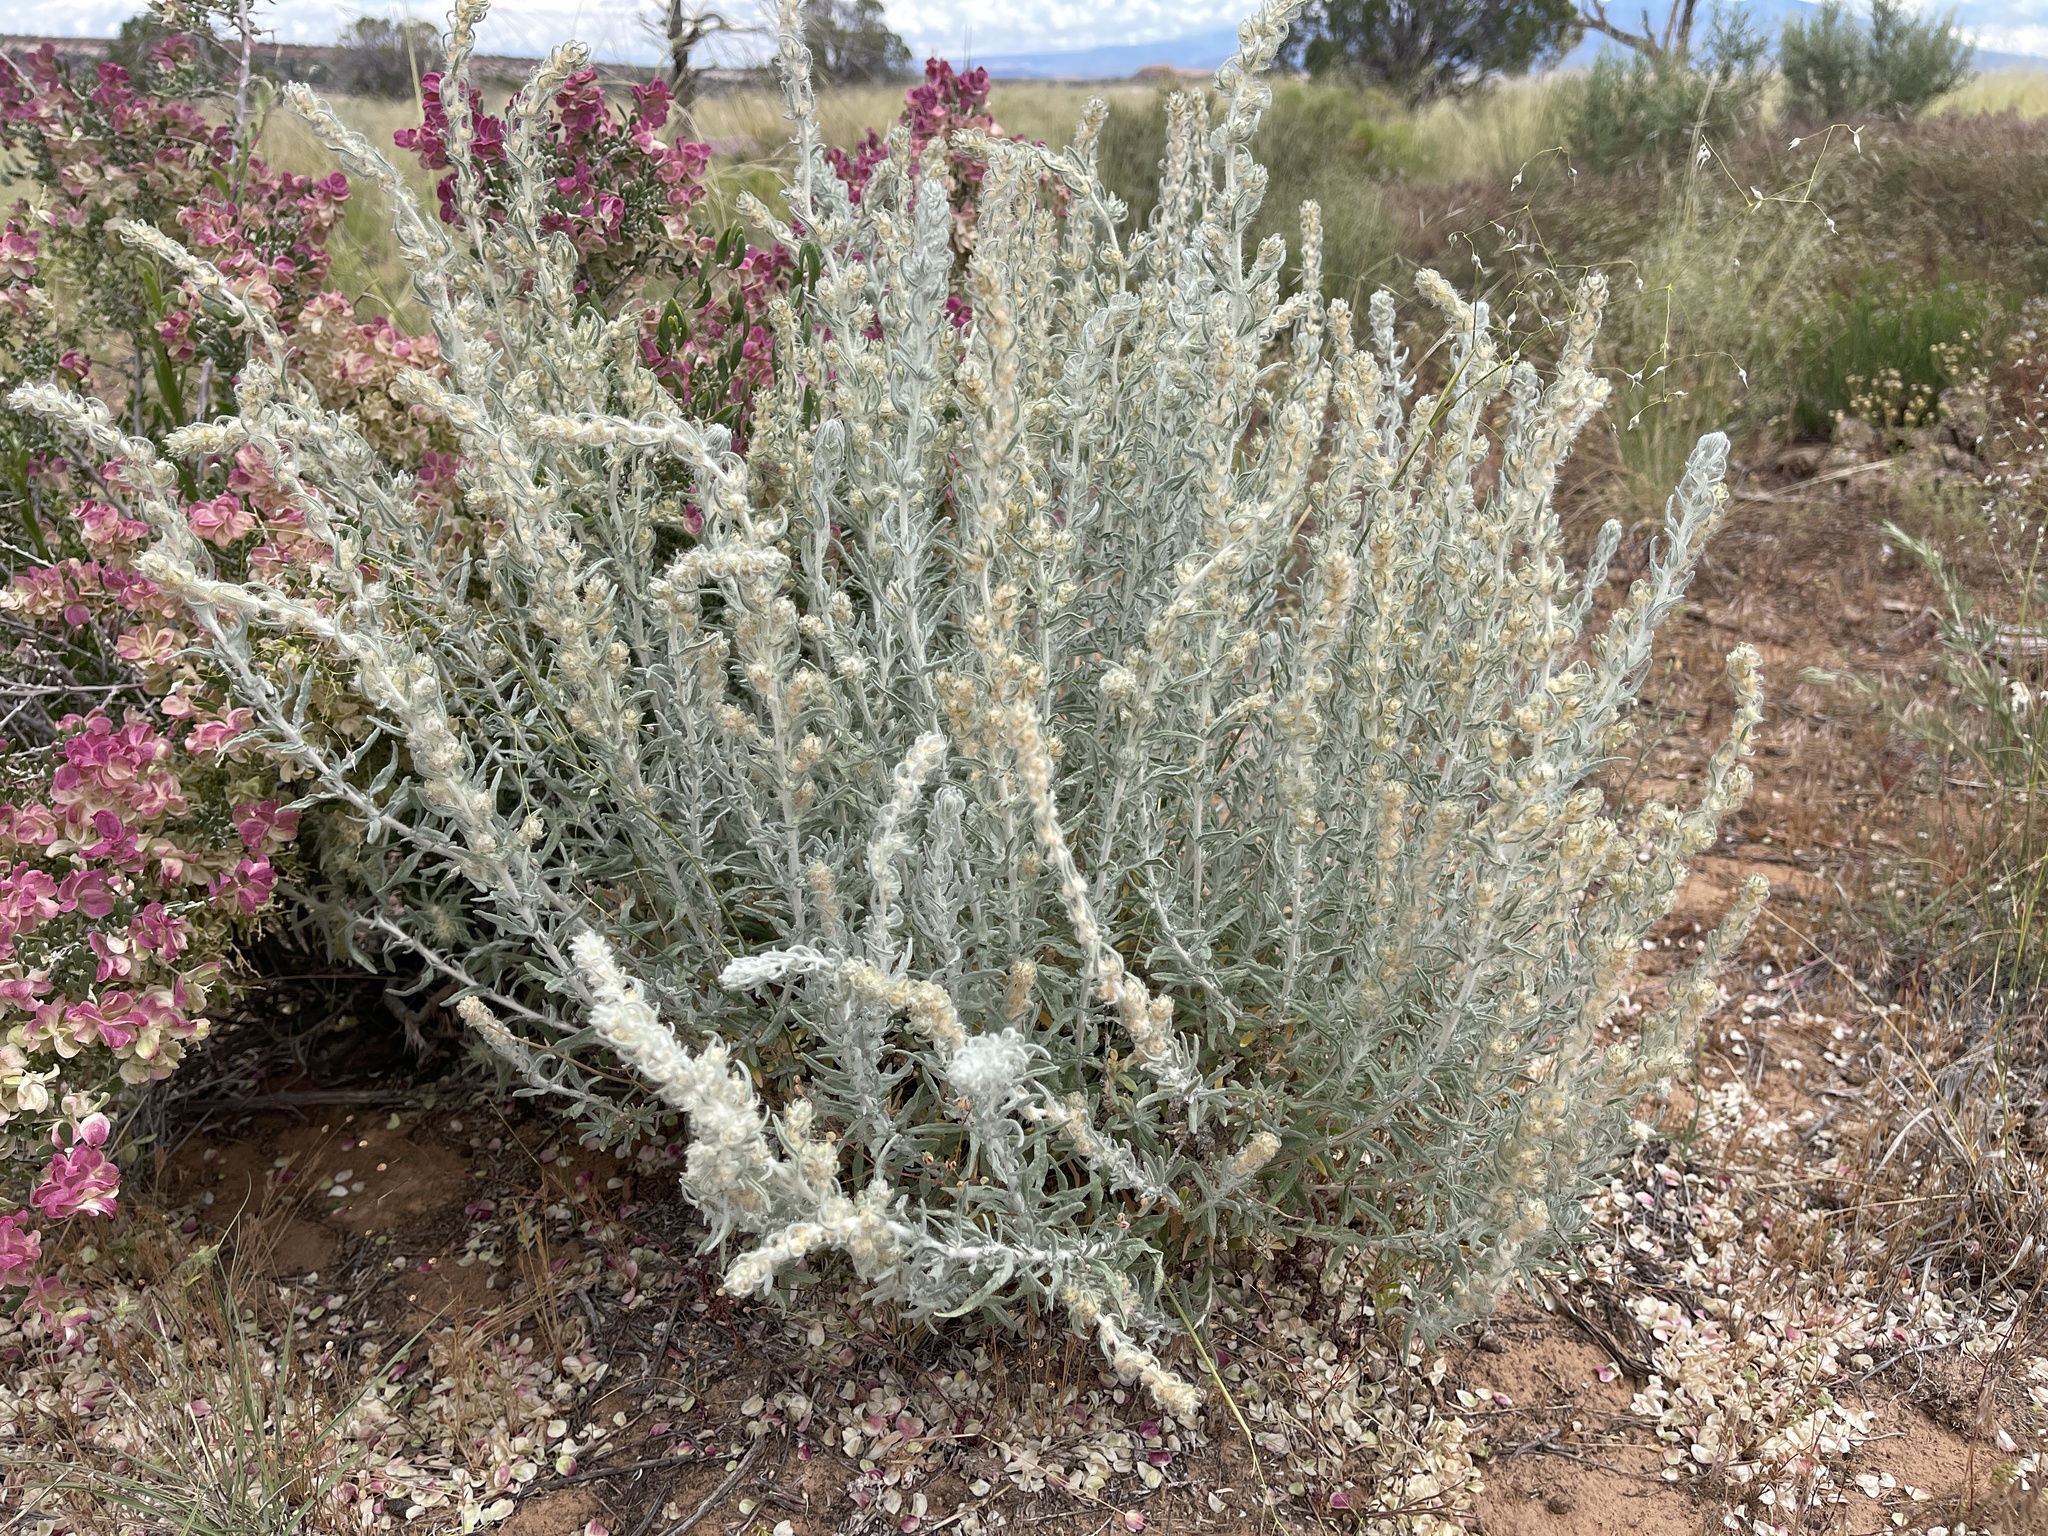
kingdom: Plantae
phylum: Tracheophyta
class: Magnoliopsida
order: Caryophyllales
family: Amaranthaceae
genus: Krascheninnikovia
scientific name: Krascheninnikovia lanata
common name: Winterfat
